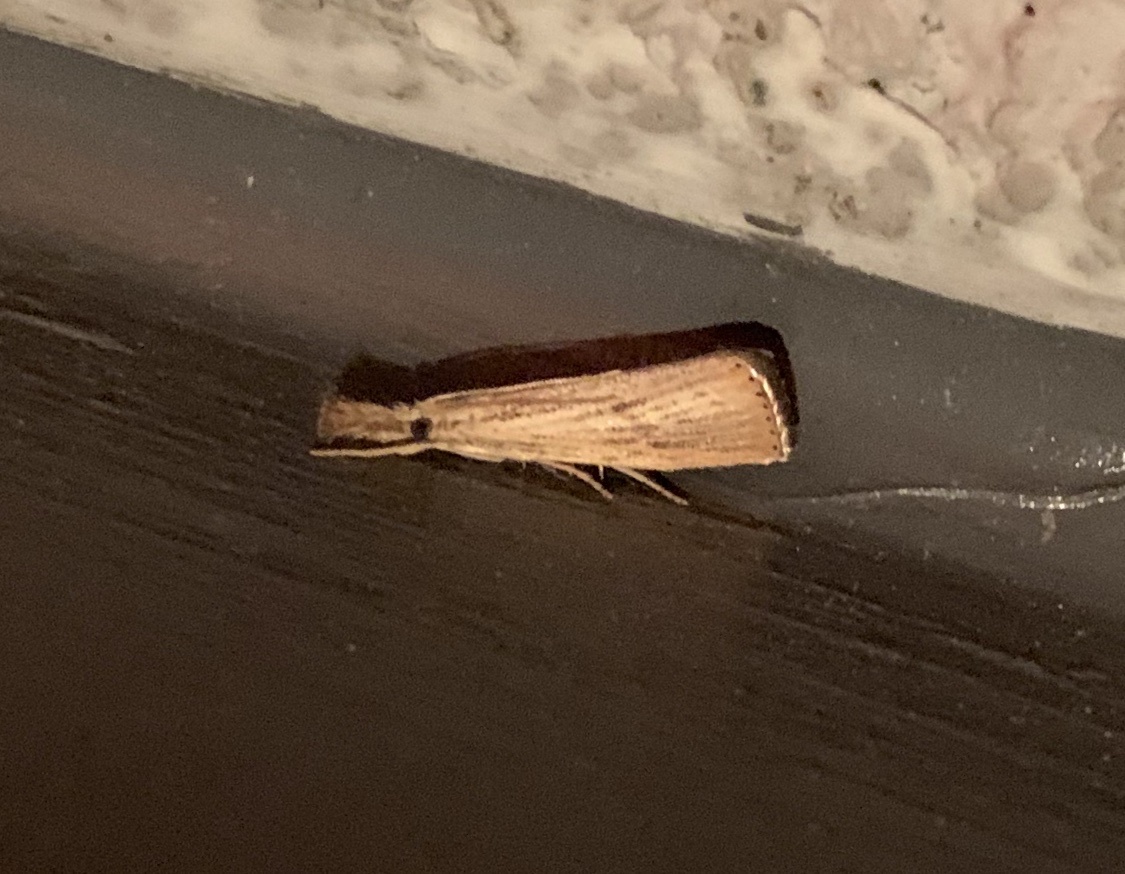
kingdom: Animalia
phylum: Arthropoda
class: Insecta
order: Lepidoptera
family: Crambidae
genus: Agriphila
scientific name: Agriphila ruricolellus
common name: Lesser vagabond sod webworm
